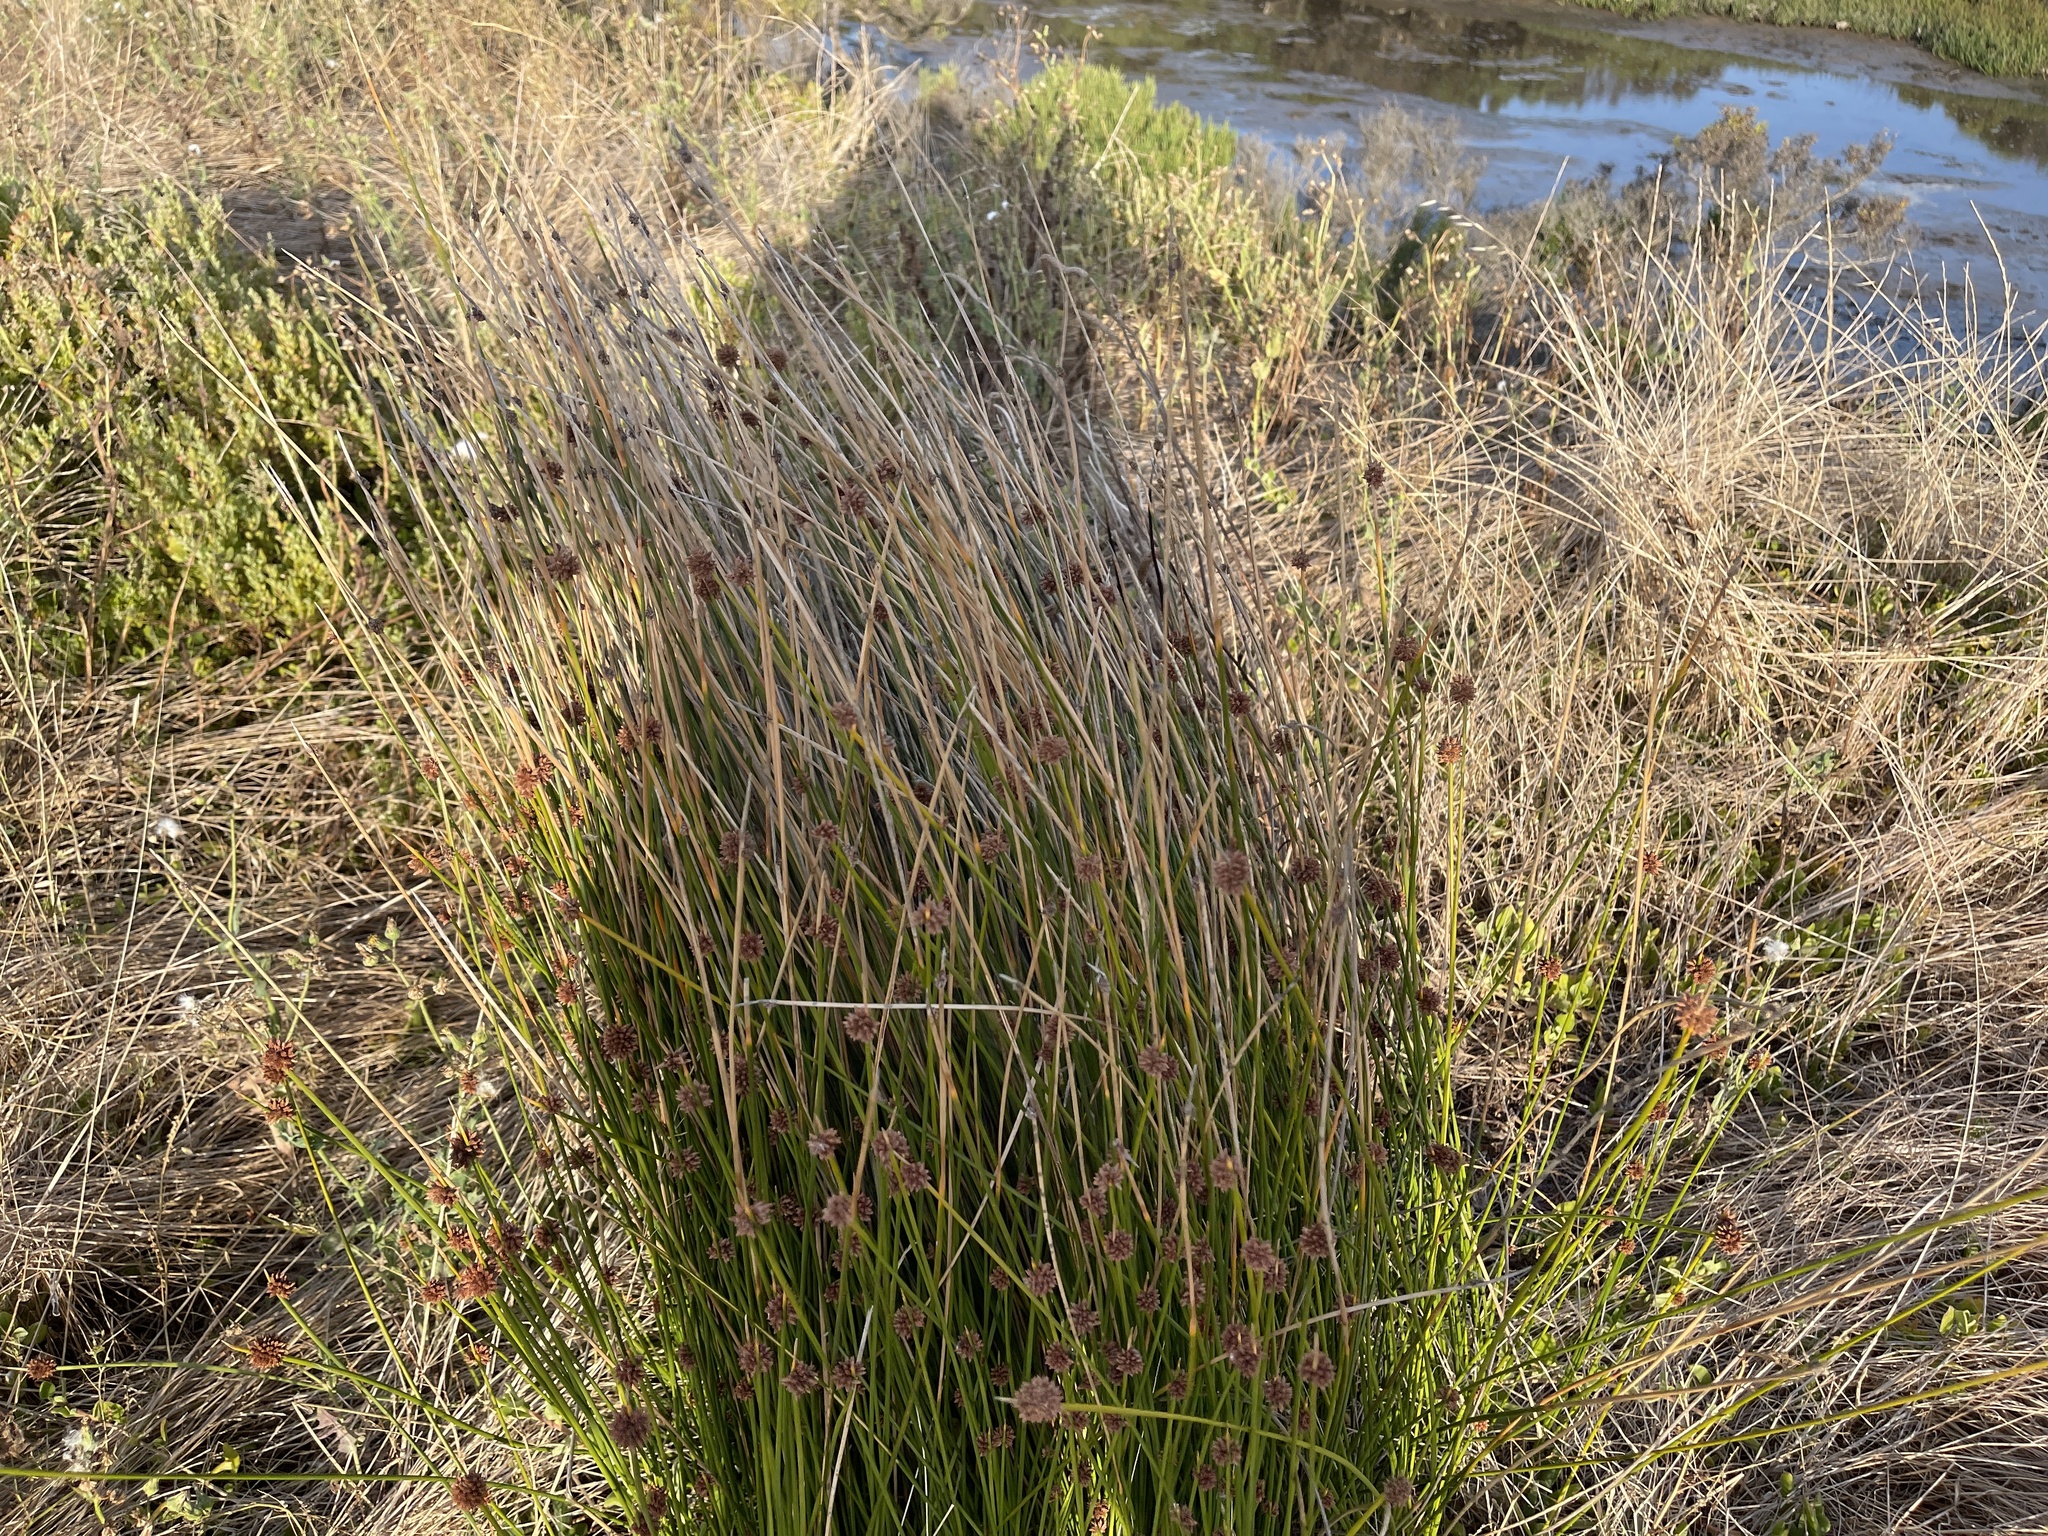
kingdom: Plantae
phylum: Tracheophyta
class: Liliopsida
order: Poales
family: Cyperaceae
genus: Ficinia
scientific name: Ficinia nodosa
